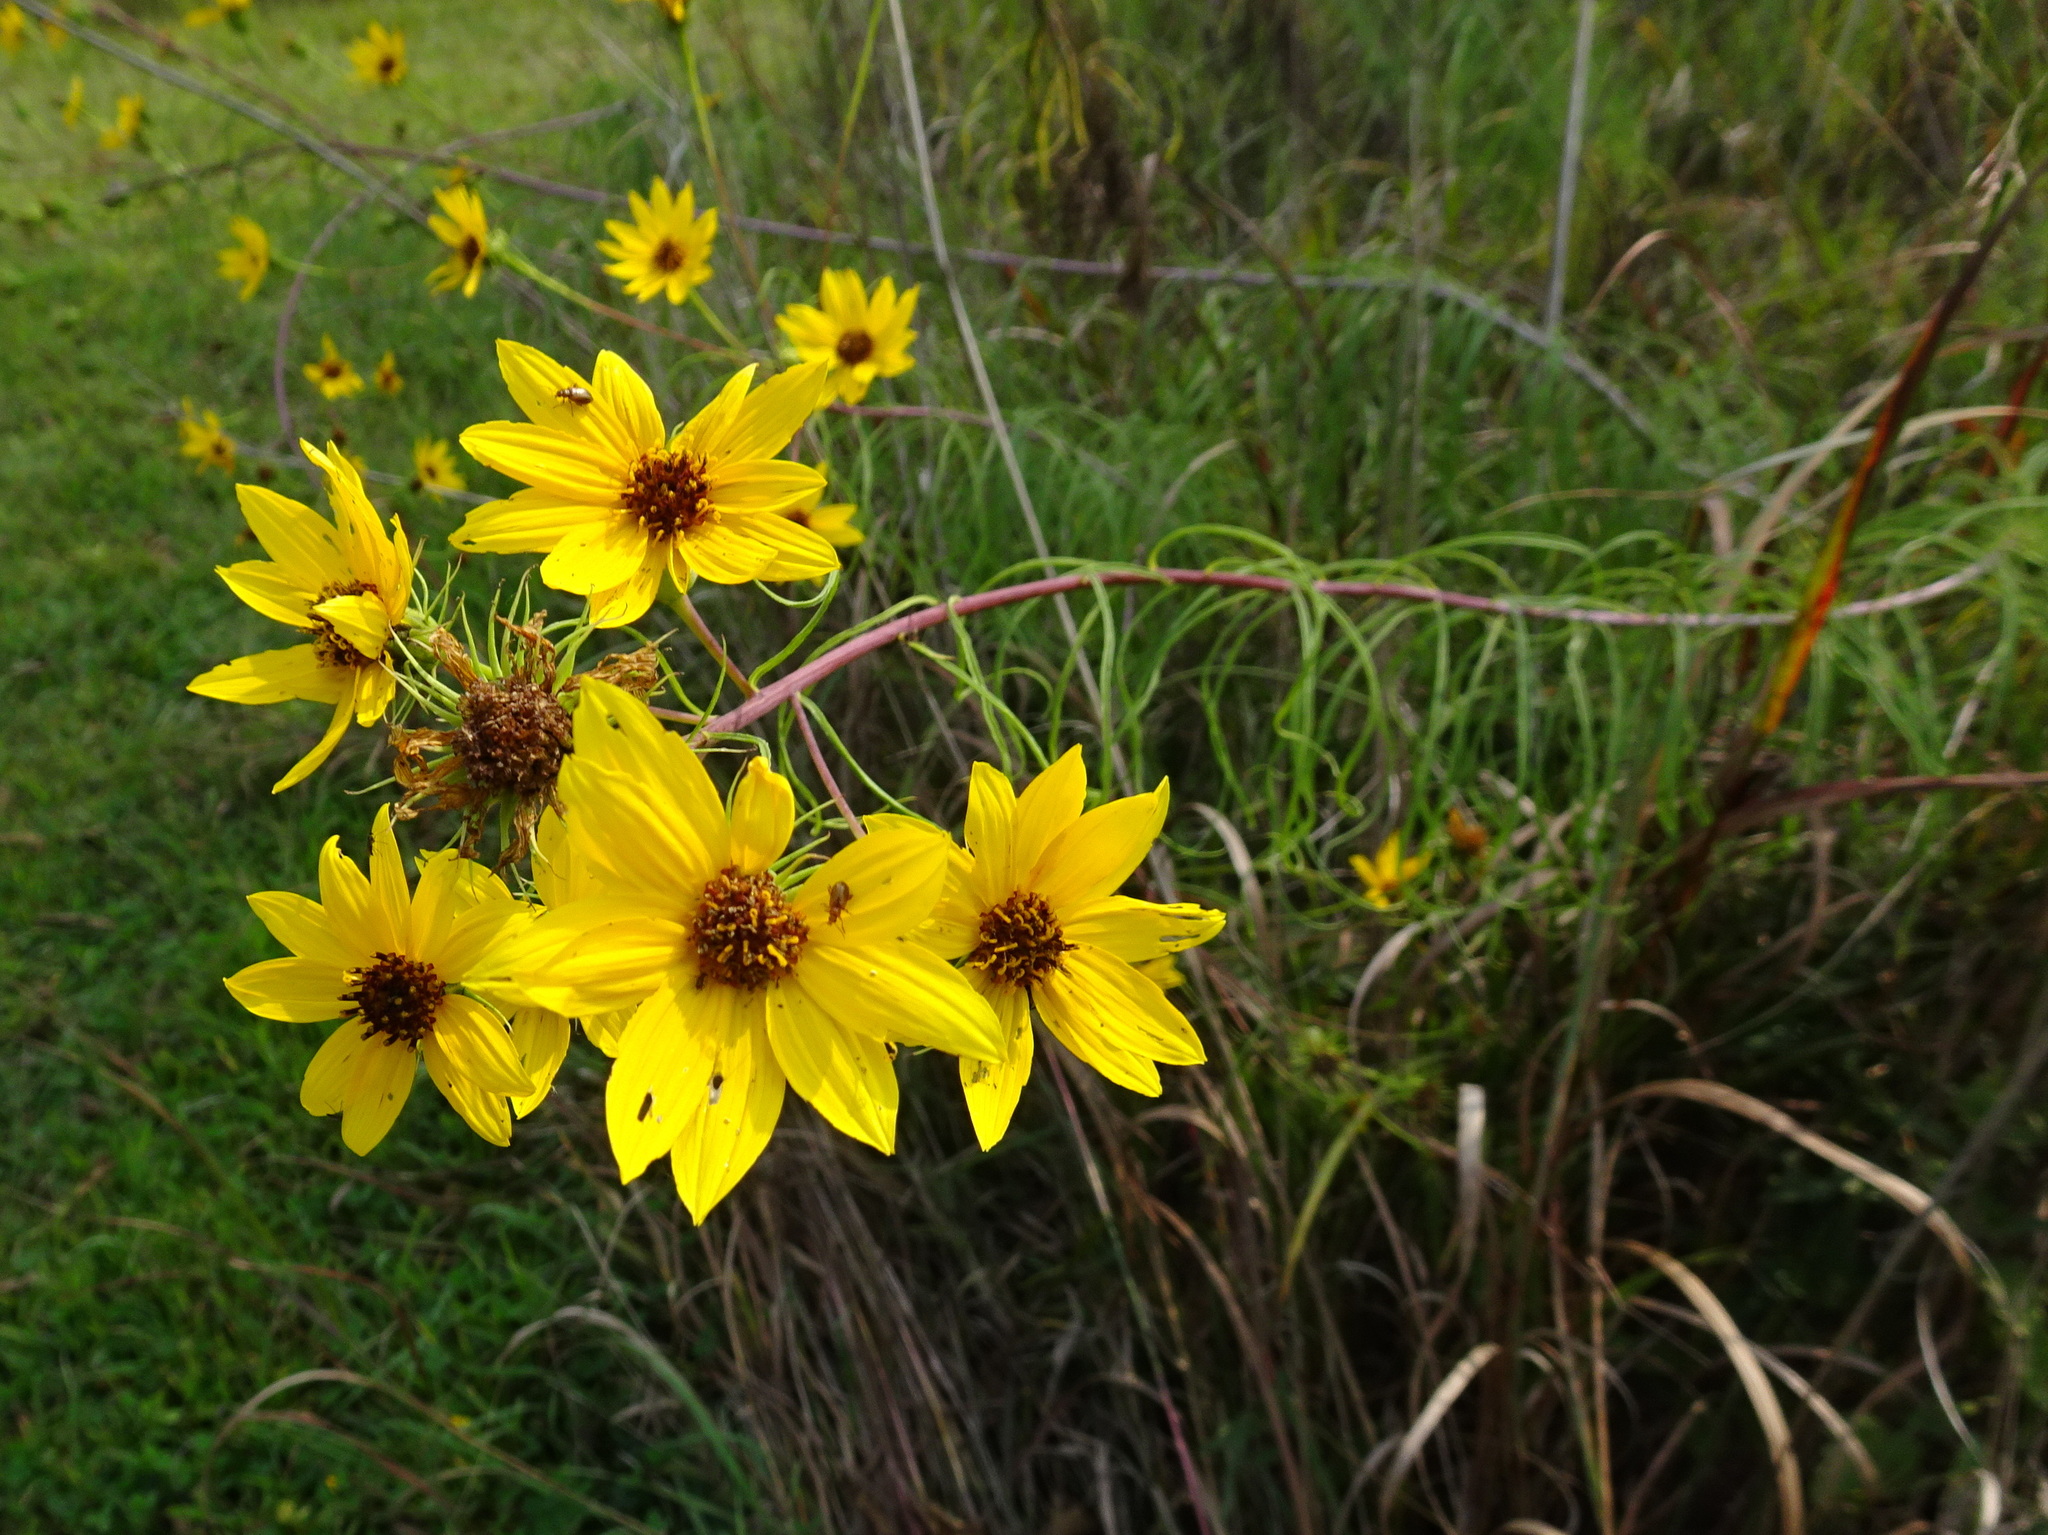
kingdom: Plantae
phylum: Tracheophyta
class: Magnoliopsida
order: Asterales
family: Asteraceae
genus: Helianthus
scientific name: Helianthus salicifolius
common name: Willowleaf sunflower
